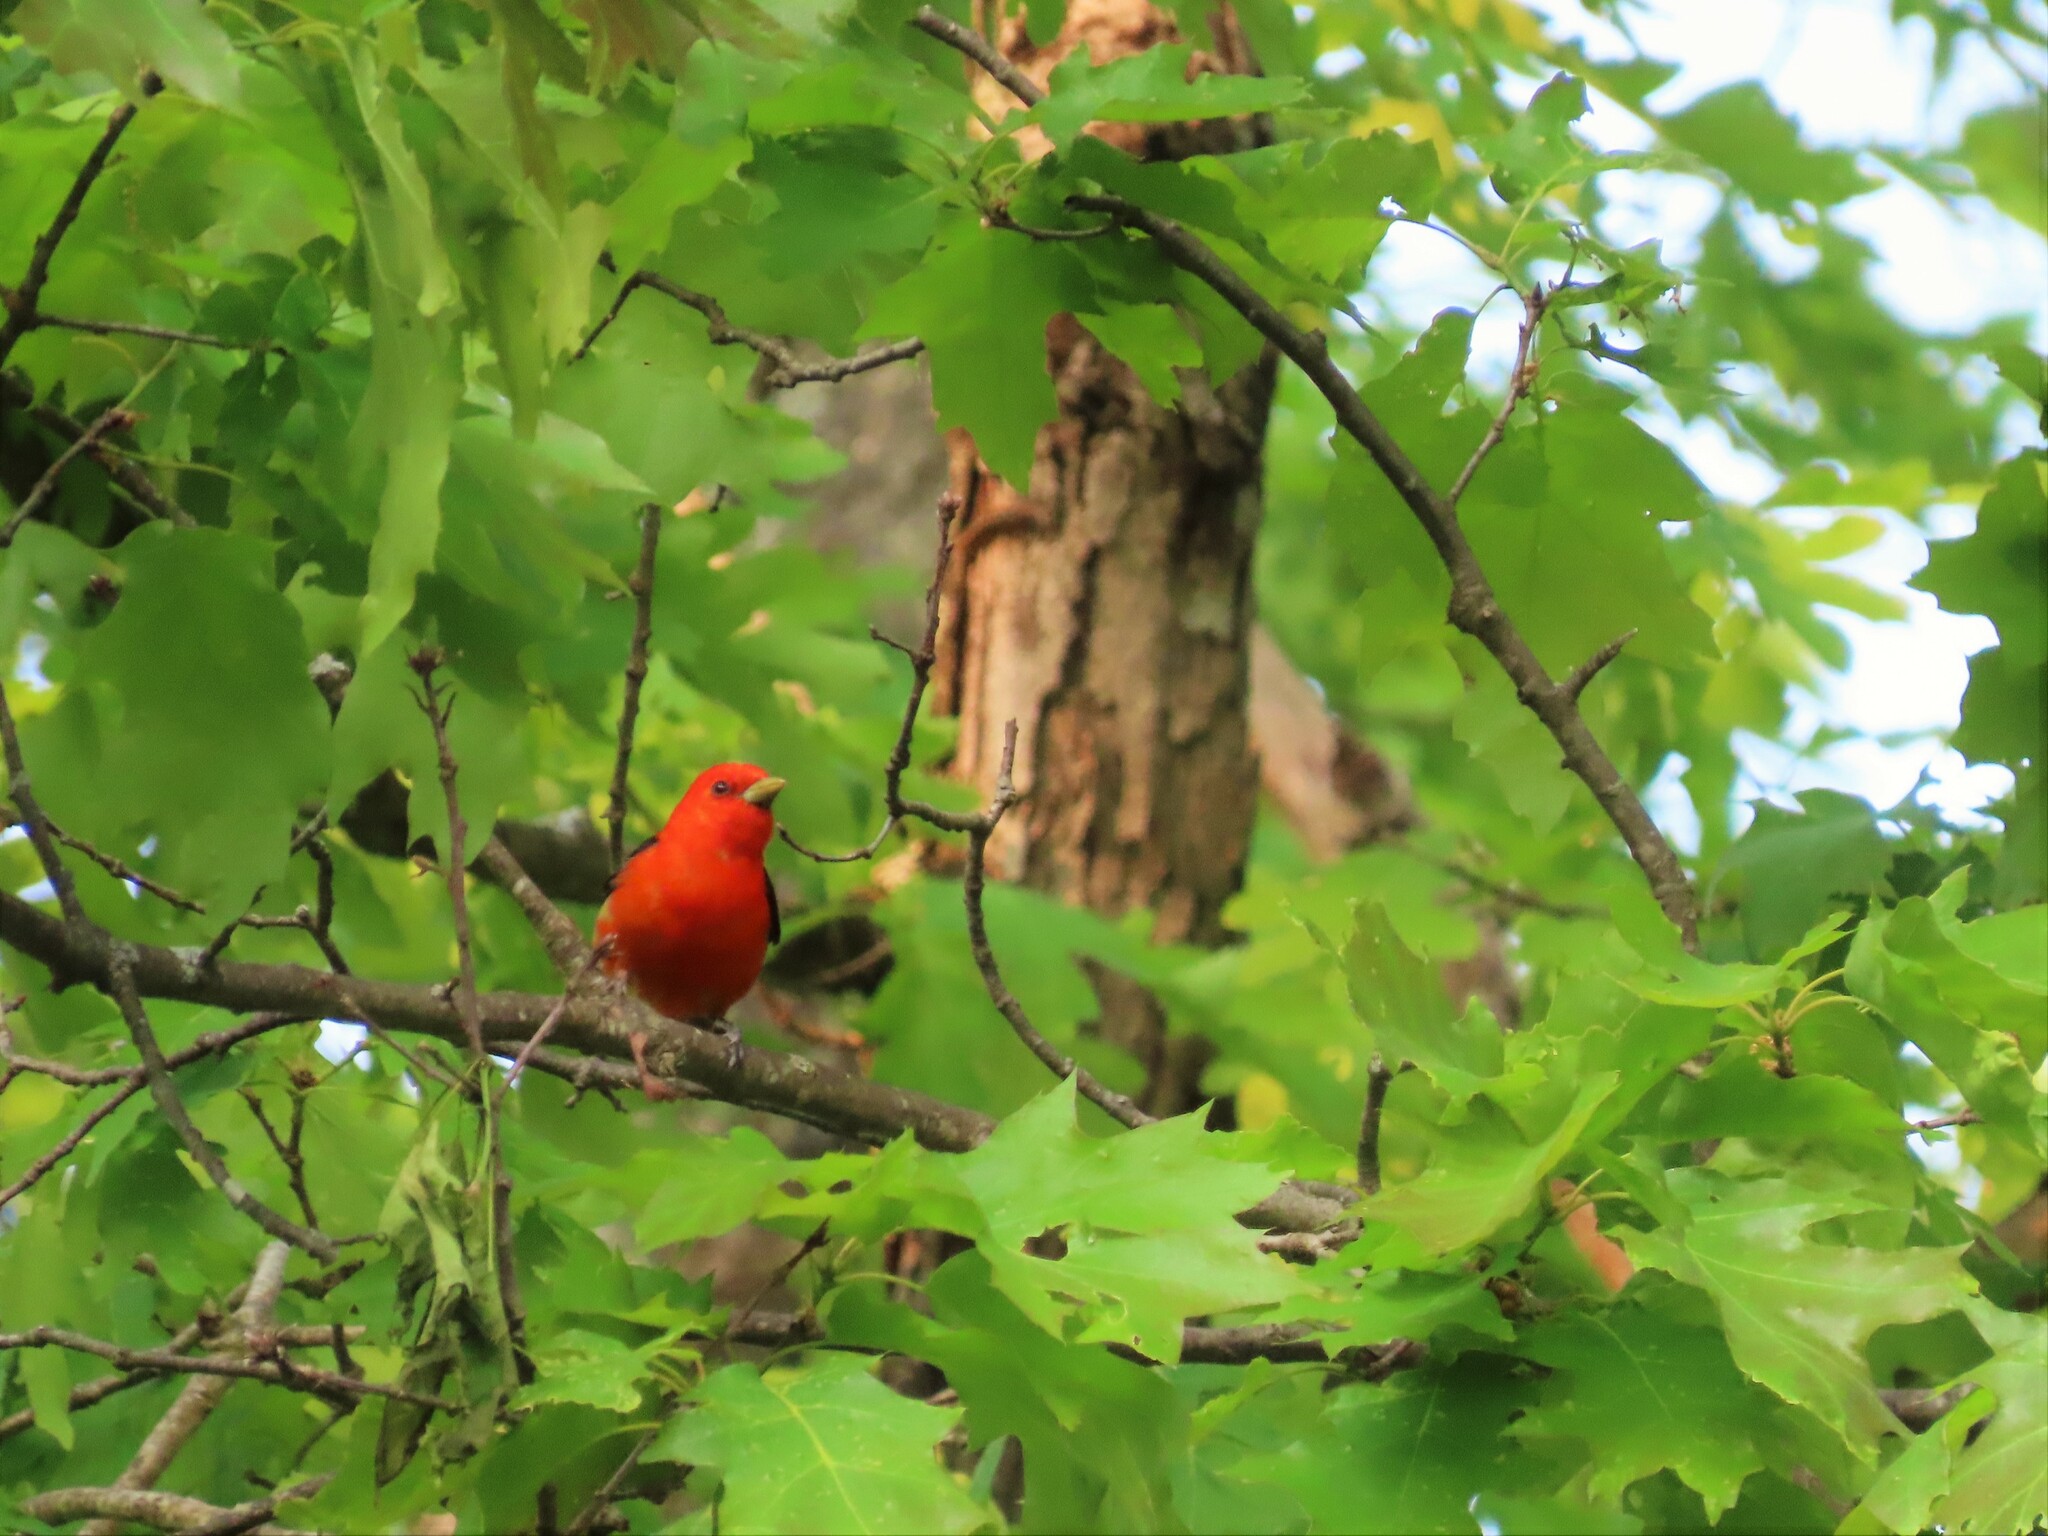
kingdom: Animalia
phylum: Chordata
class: Aves
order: Passeriformes
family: Cardinalidae
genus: Piranga
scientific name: Piranga olivacea
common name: Scarlet tanager
